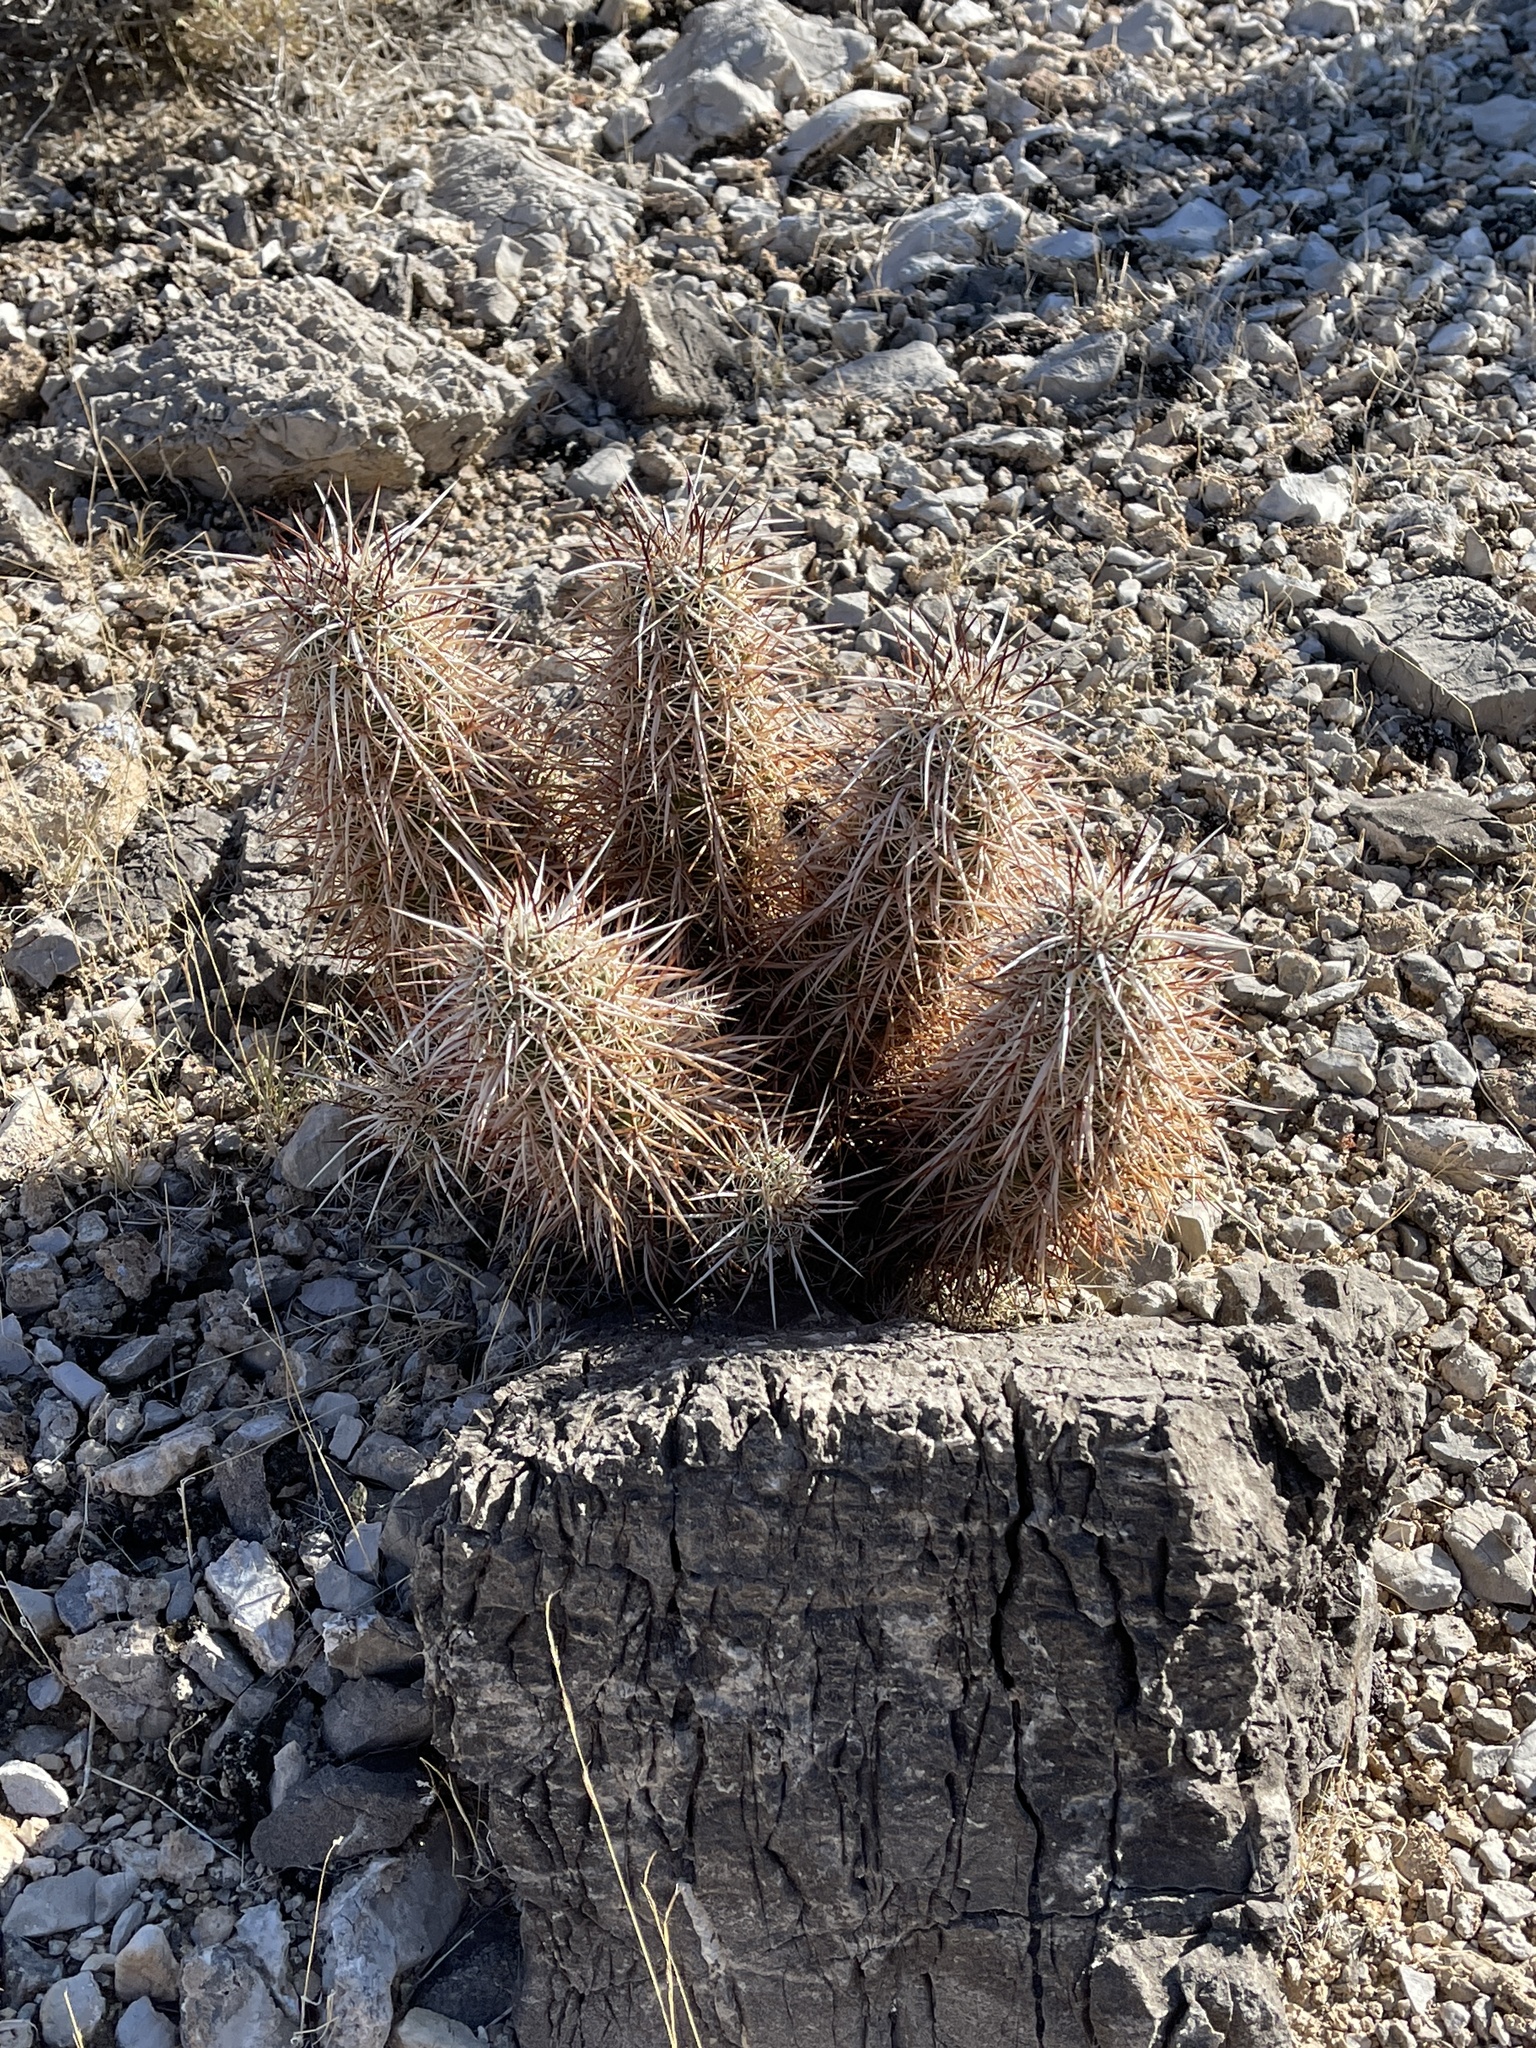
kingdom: Plantae
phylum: Tracheophyta
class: Magnoliopsida
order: Caryophyllales
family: Cactaceae
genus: Echinocereus
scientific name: Echinocereus engelmannii
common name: Engelmann's hedgehog cactus
